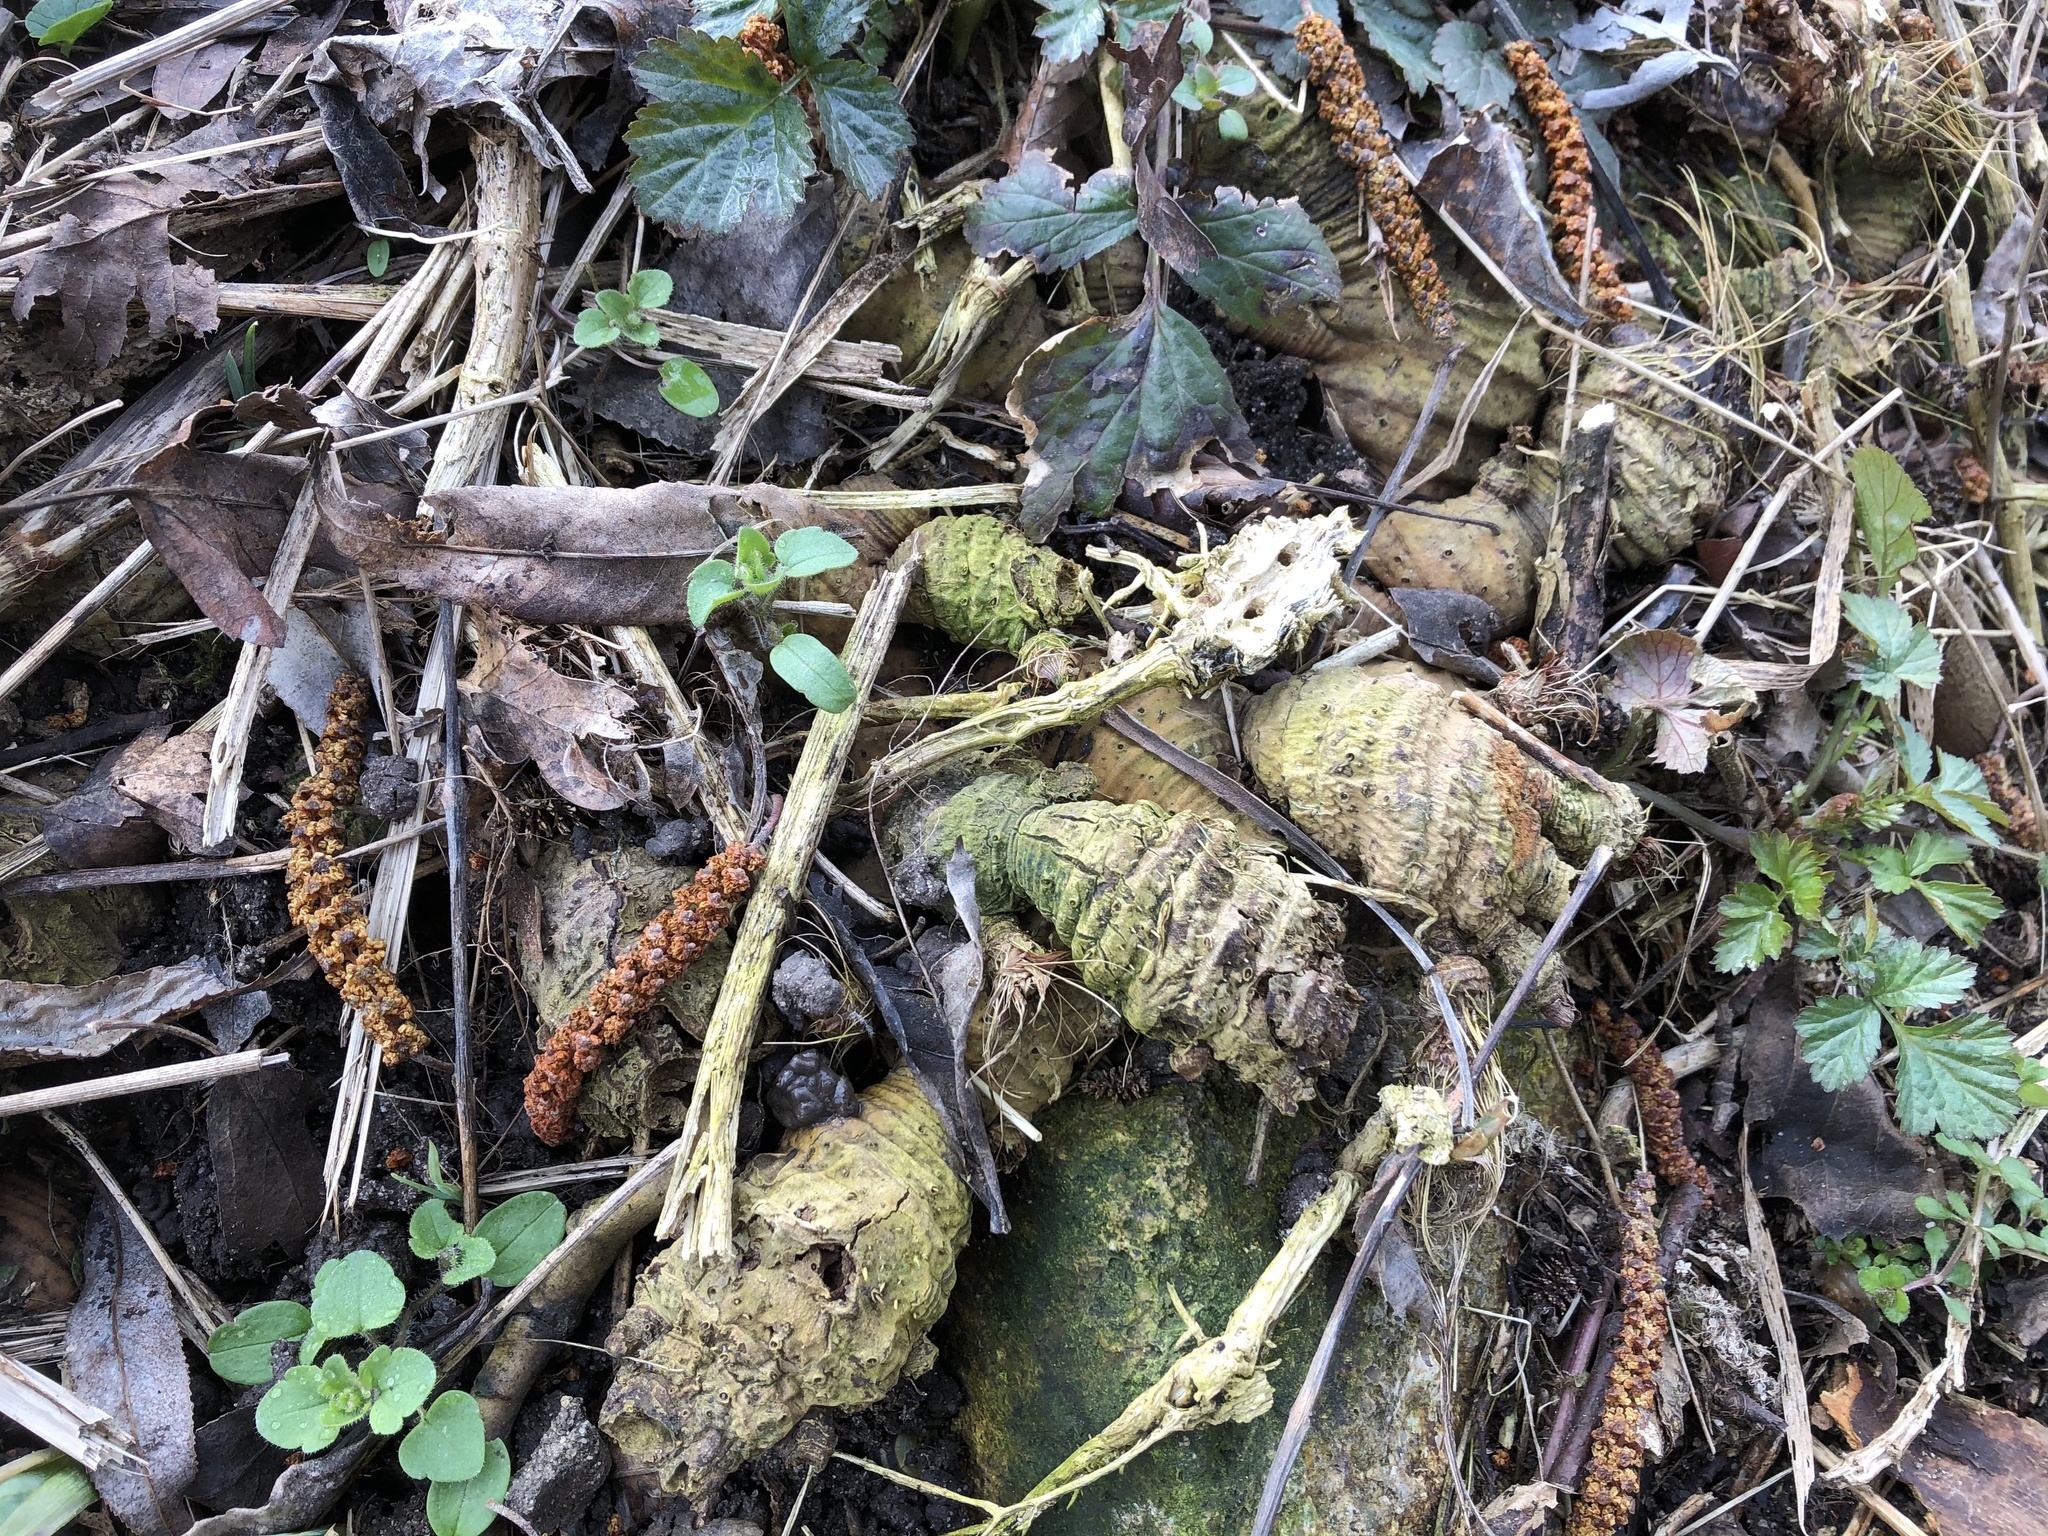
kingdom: Plantae
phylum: Tracheophyta
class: Liliopsida
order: Asparagales
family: Iridaceae
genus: Iris
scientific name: Iris pseudacorus
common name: Yellow flag
